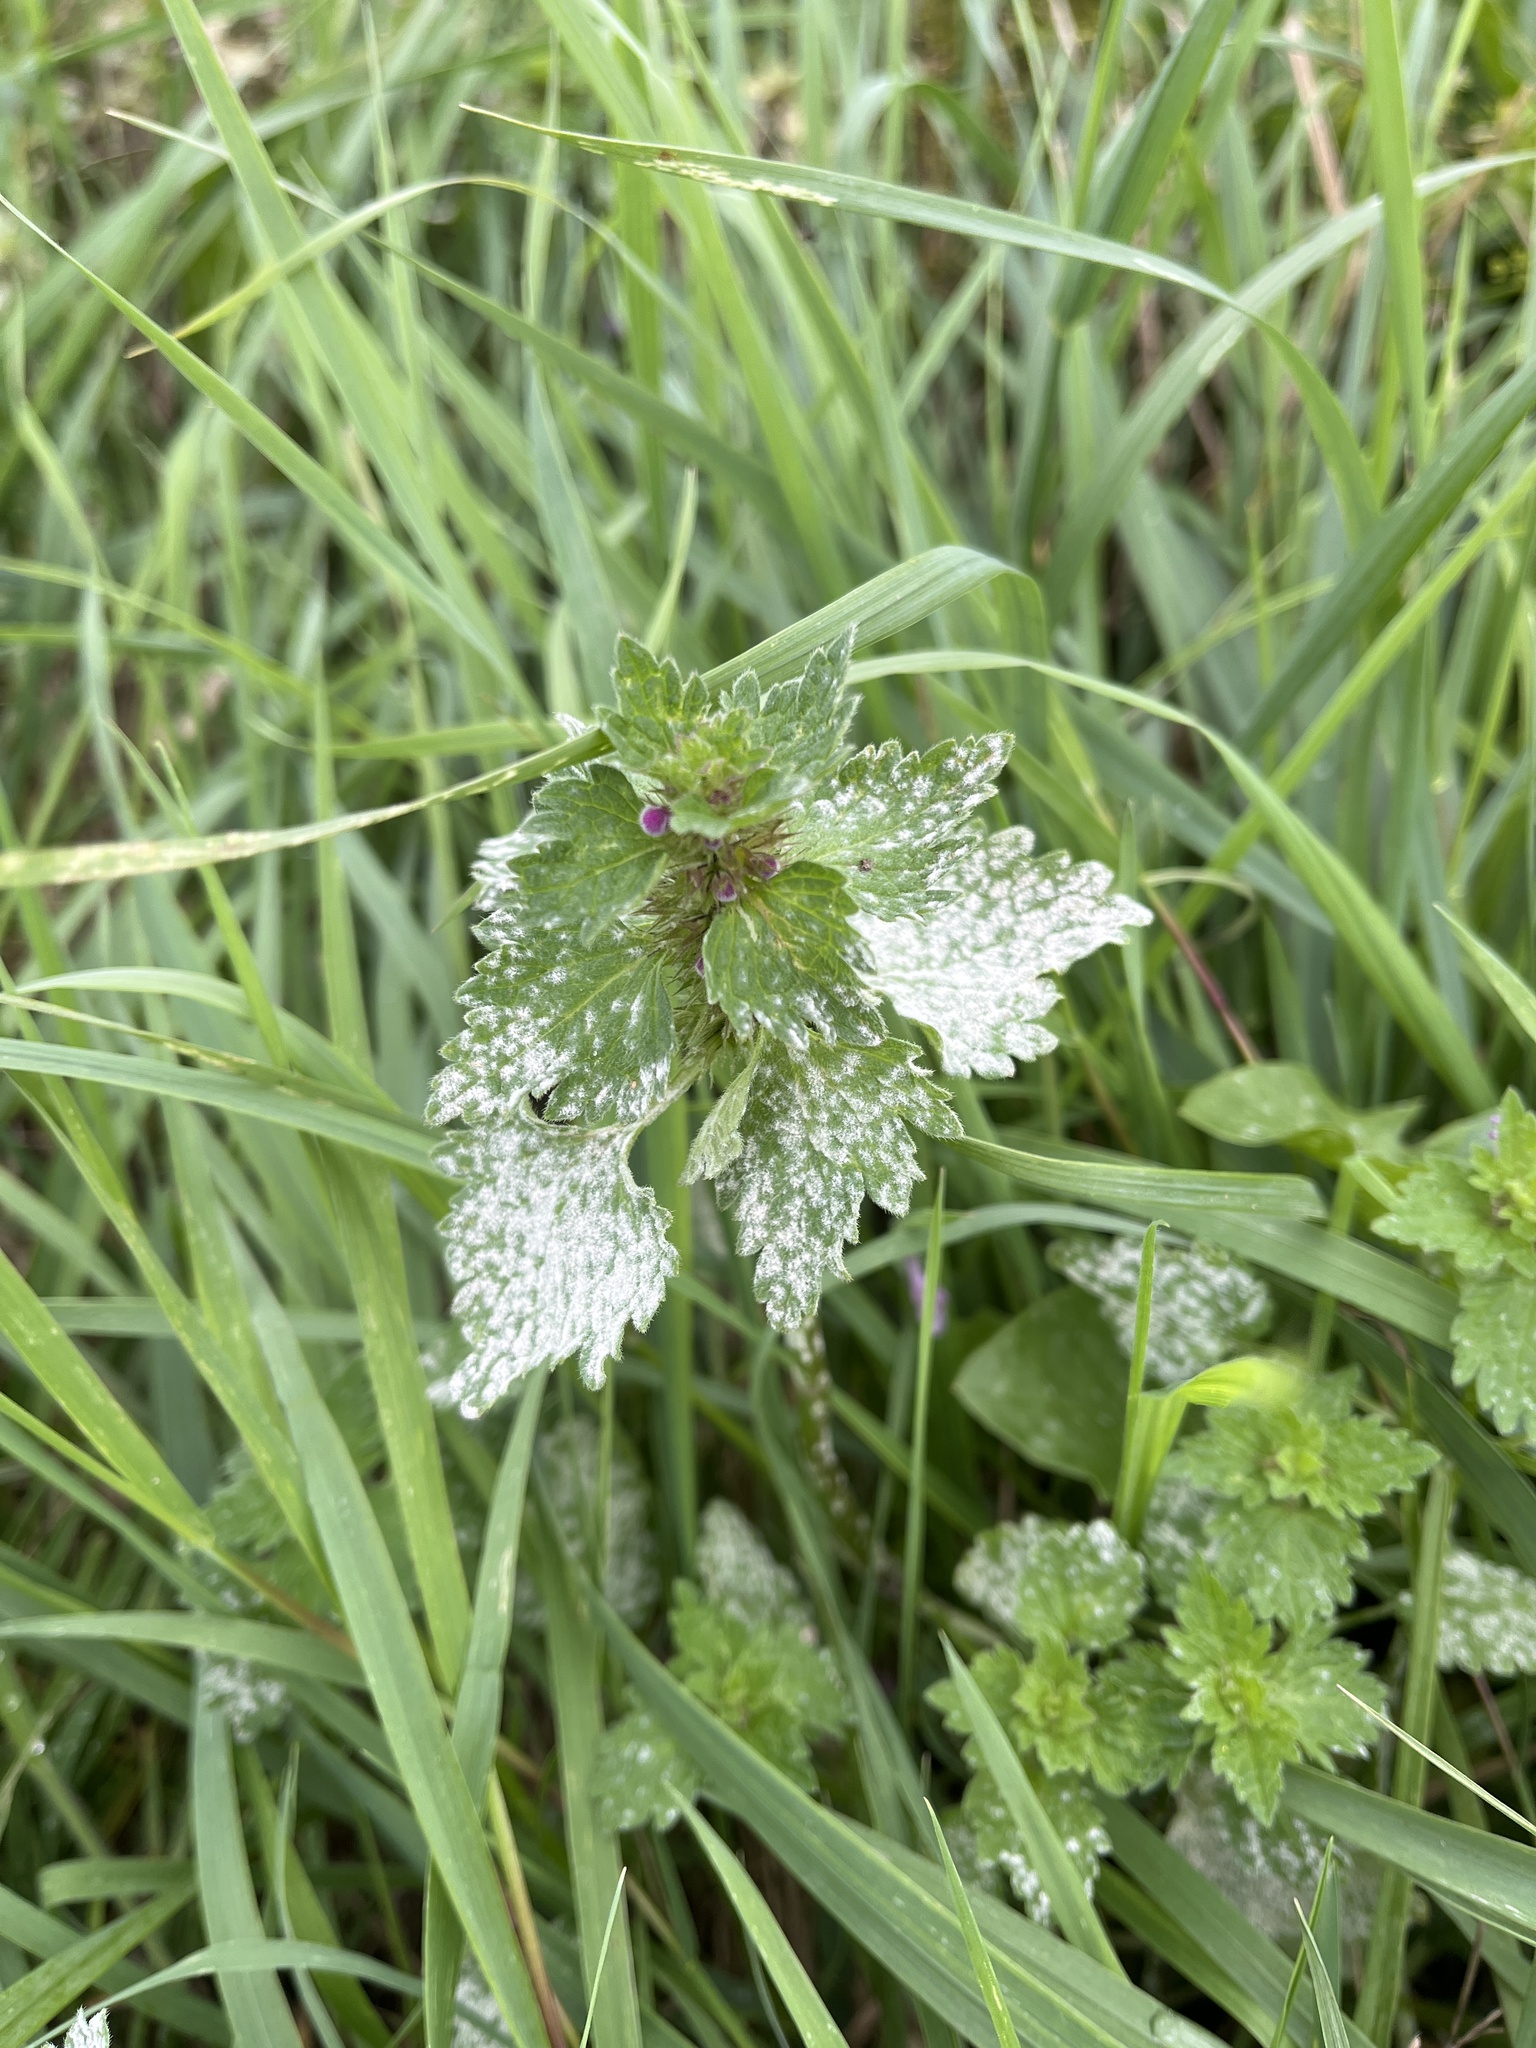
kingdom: Plantae
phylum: Tracheophyta
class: Magnoliopsida
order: Lamiales
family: Lamiaceae
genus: Lamium
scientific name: Lamium hybridum
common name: Cut-leaved dead-nettle
